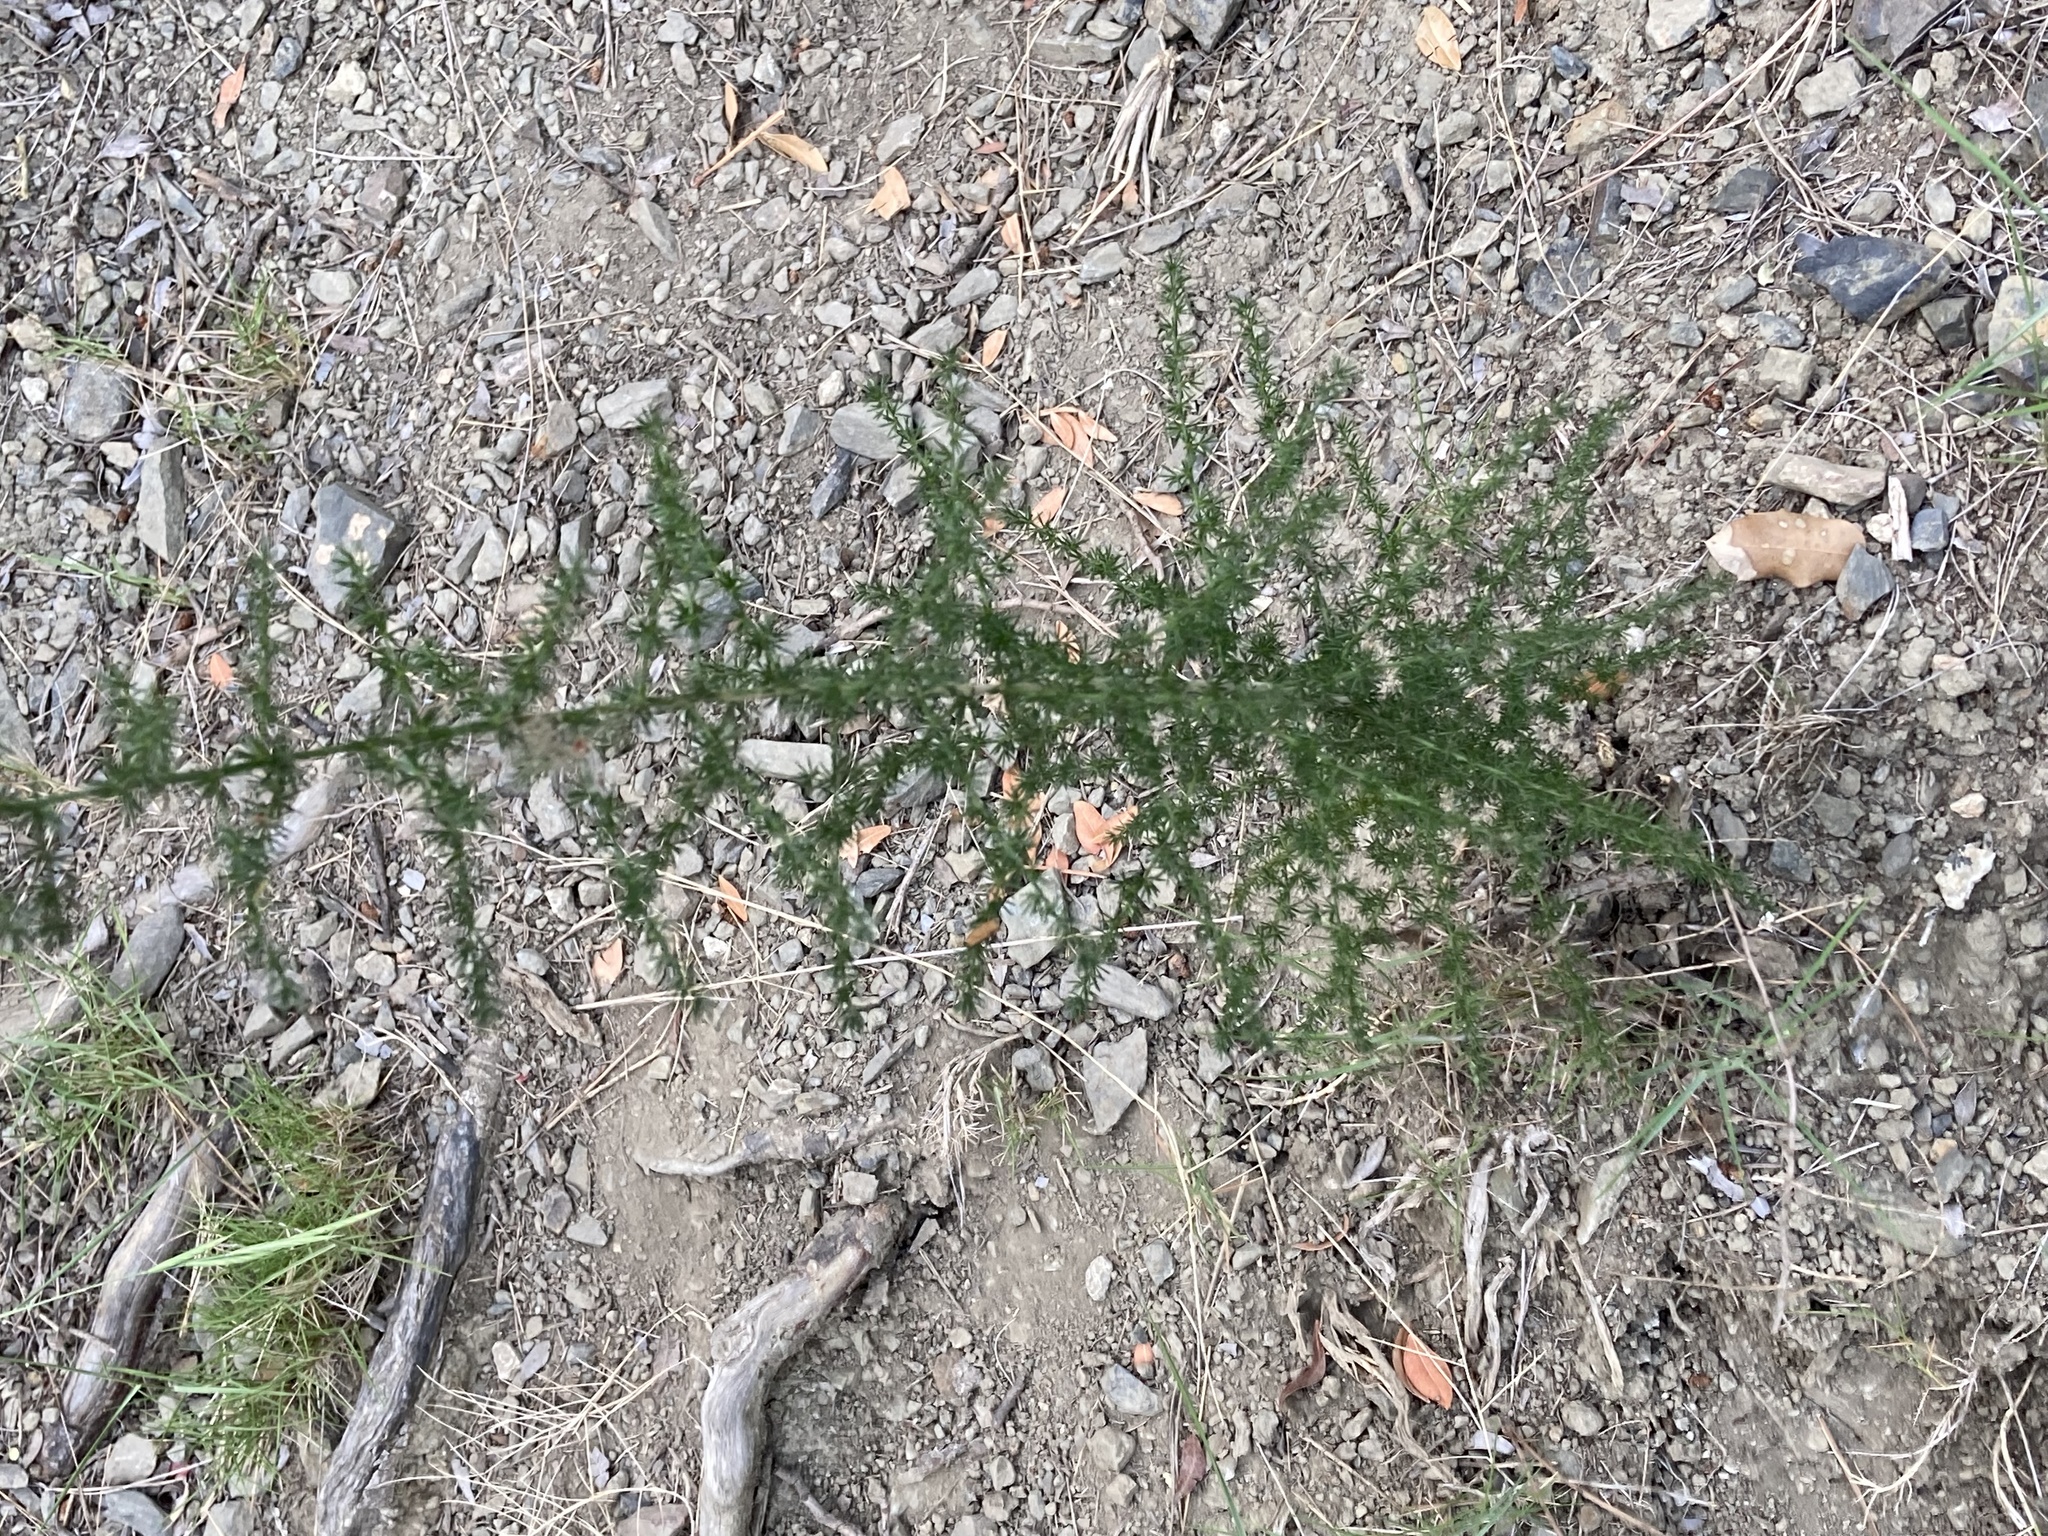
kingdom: Plantae
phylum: Tracheophyta
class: Liliopsida
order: Asparagales
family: Asparagaceae
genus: Asparagus
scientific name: Asparagus acutifolius
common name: Wild asparagus
